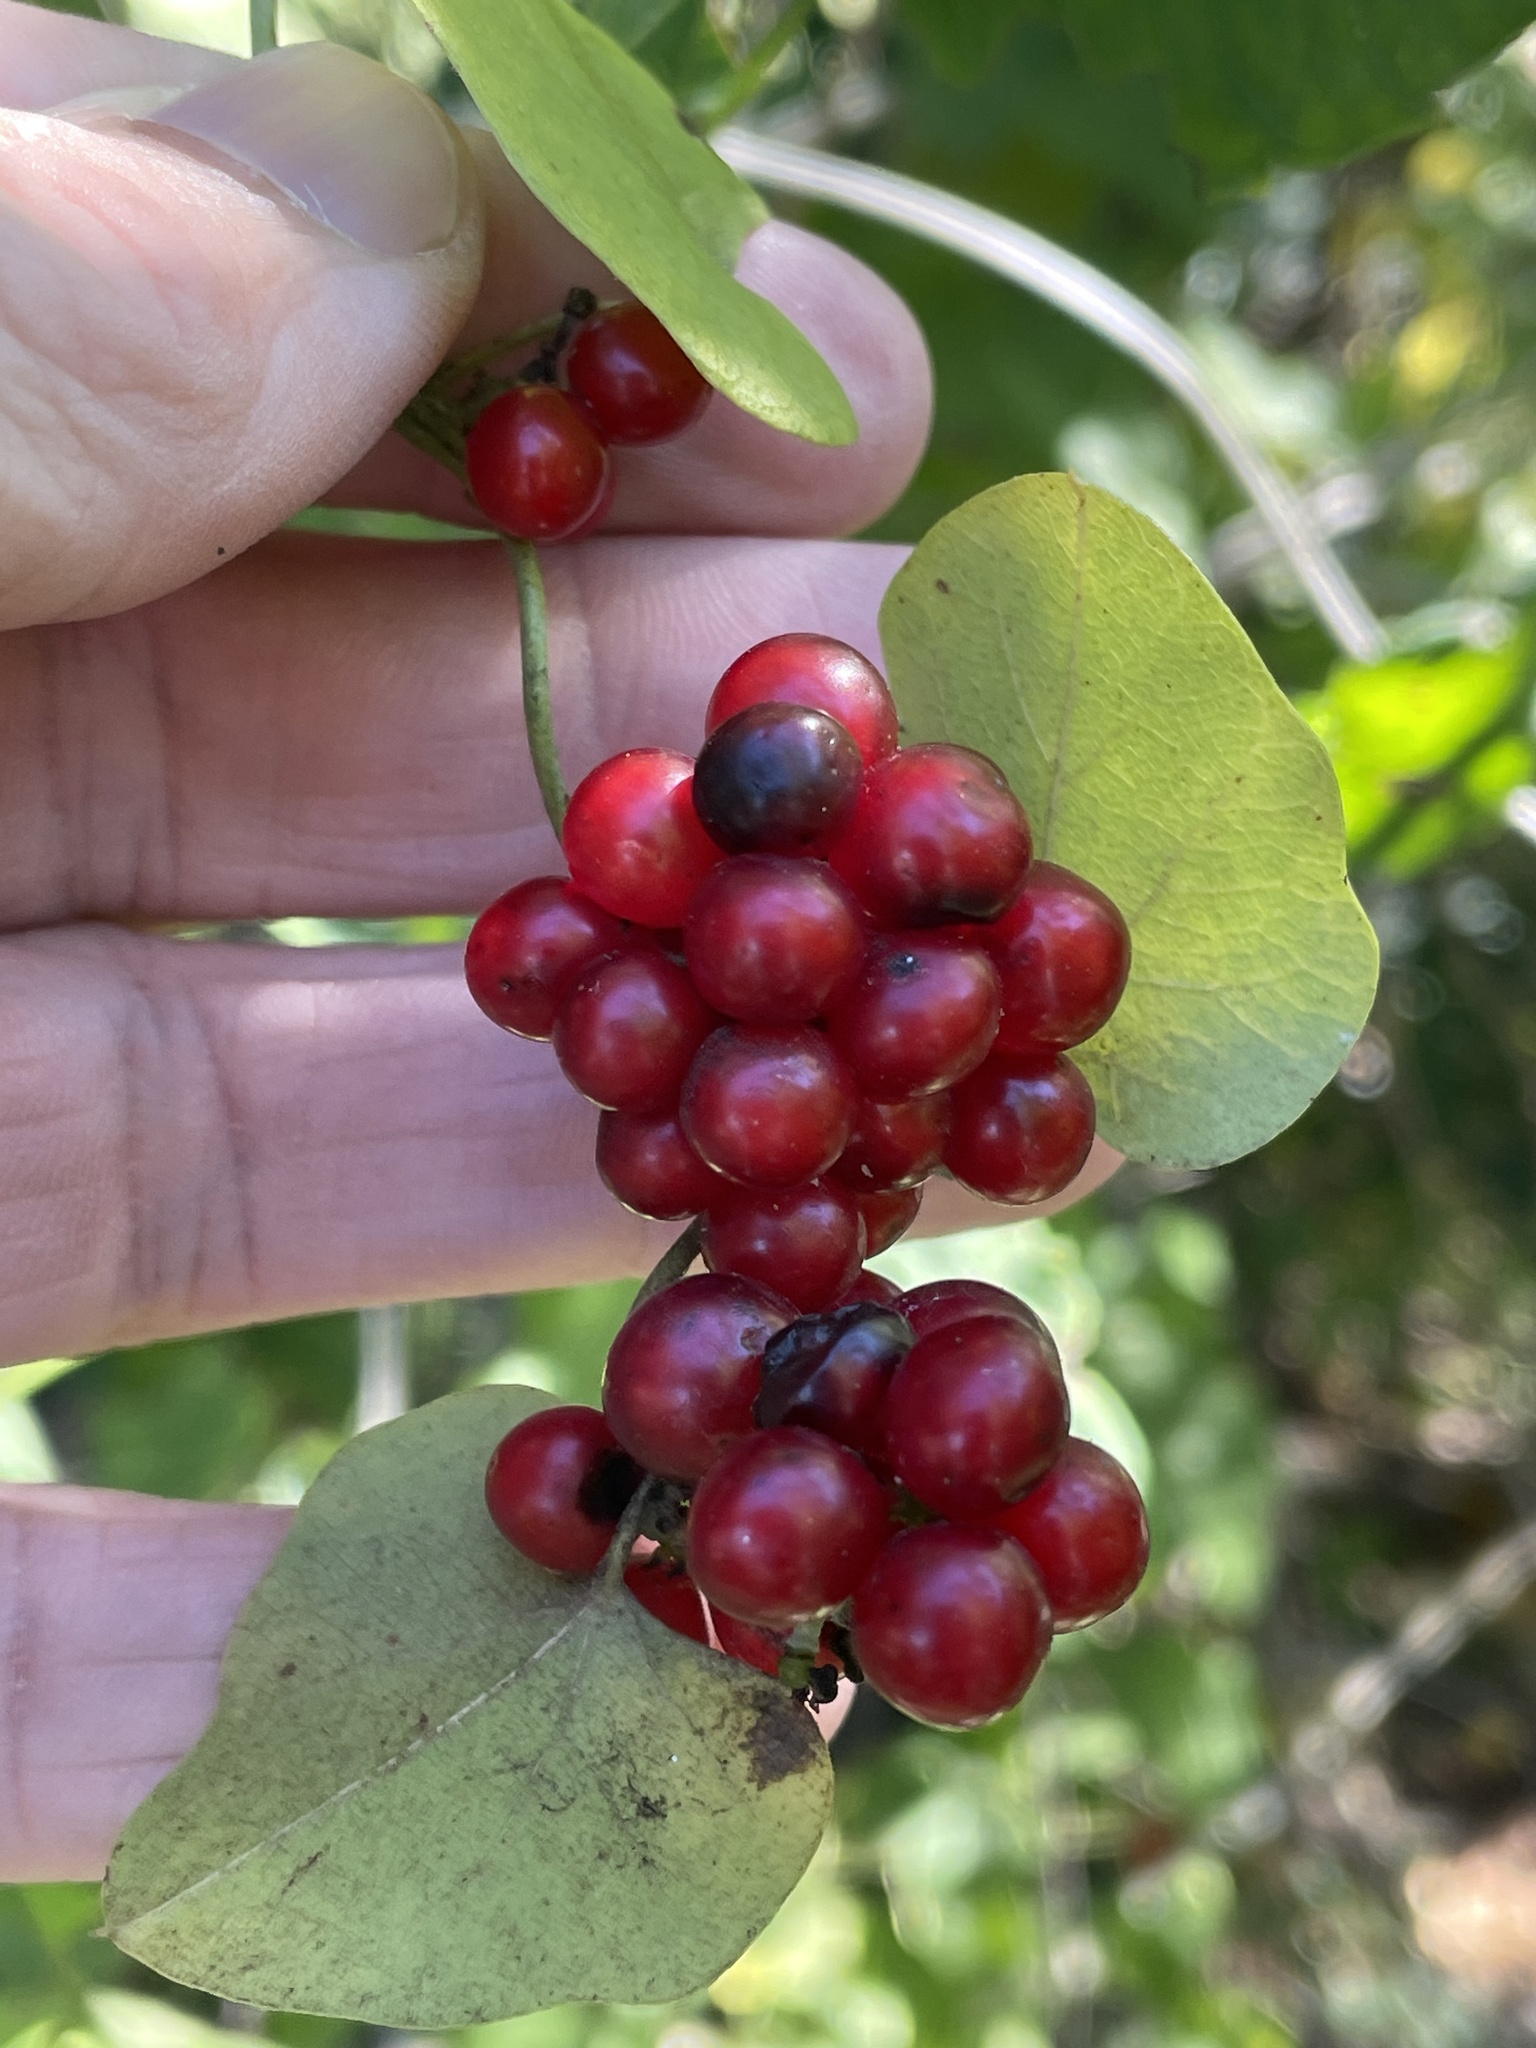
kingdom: Plantae
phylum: Tracheophyta
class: Magnoliopsida
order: Ranunculales
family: Menispermaceae
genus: Cocculus
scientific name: Cocculus carolinus
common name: Carolina moonseed
